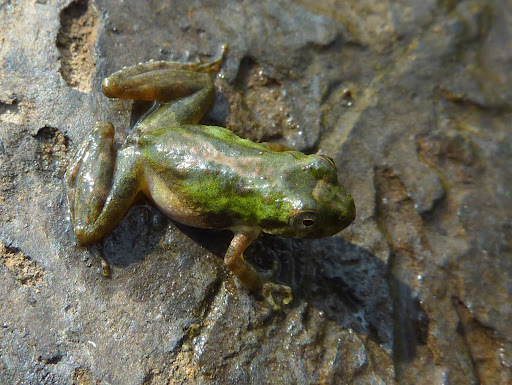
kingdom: Animalia
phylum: Chordata
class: Amphibia
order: Anura
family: Hylidae
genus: Acris
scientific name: Acris crepitans
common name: Northern cricket frog
